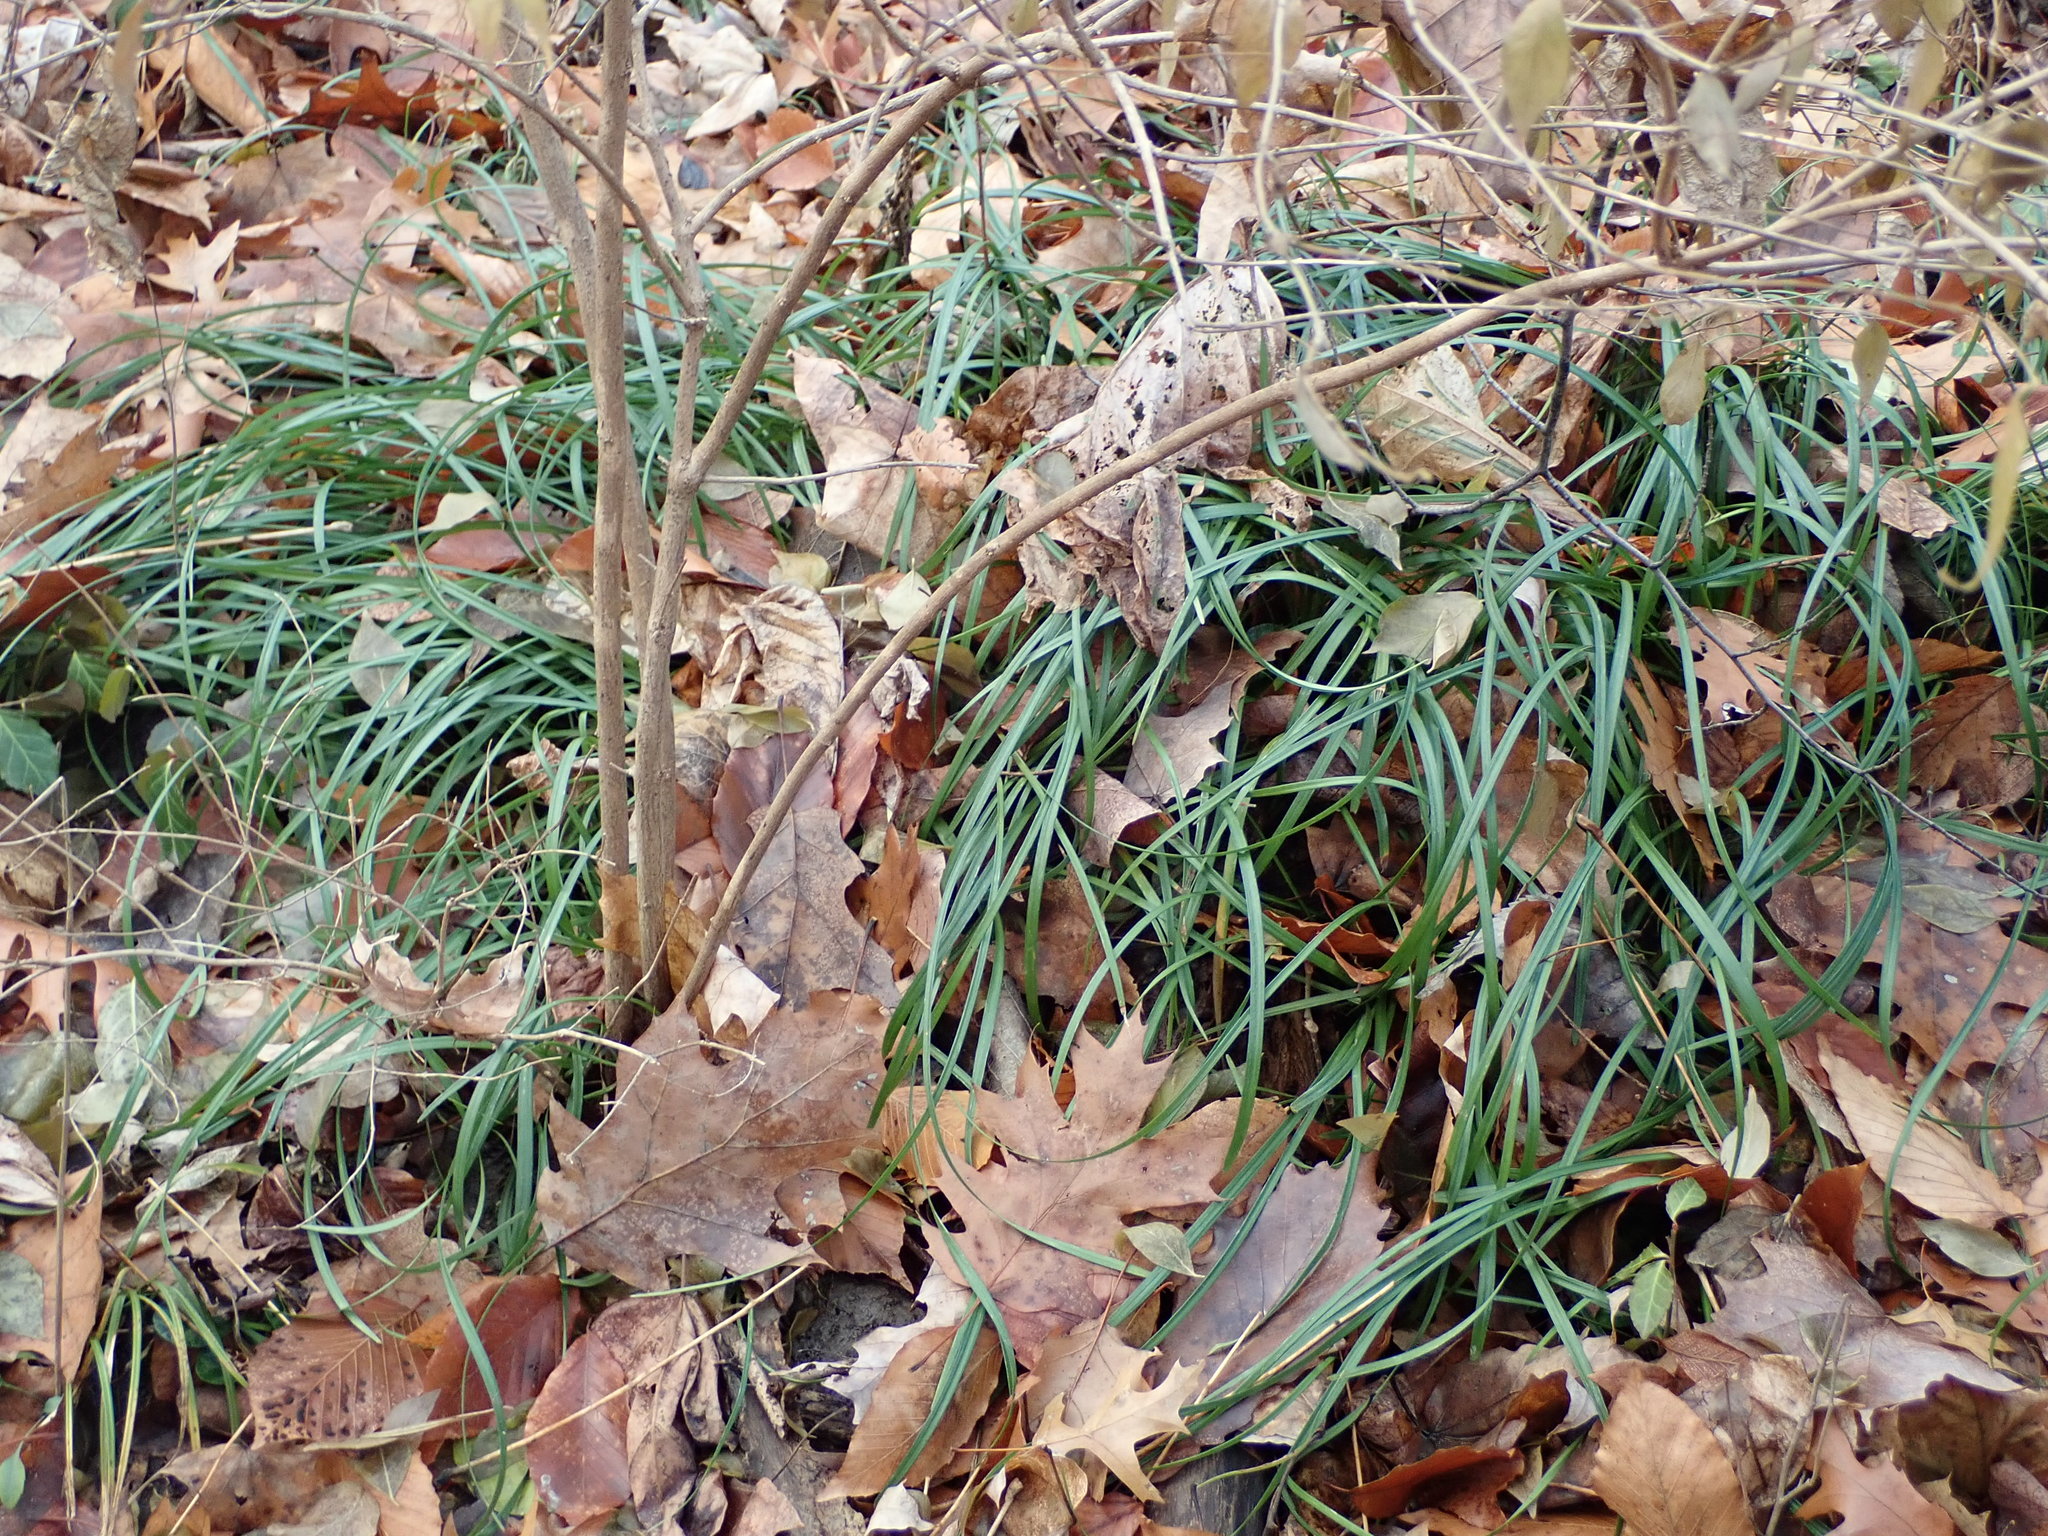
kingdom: Plantae
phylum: Tracheophyta
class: Liliopsida
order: Asparagales
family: Asparagaceae
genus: Liriope
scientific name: Liriope muscari
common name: Big blue lilyturf
